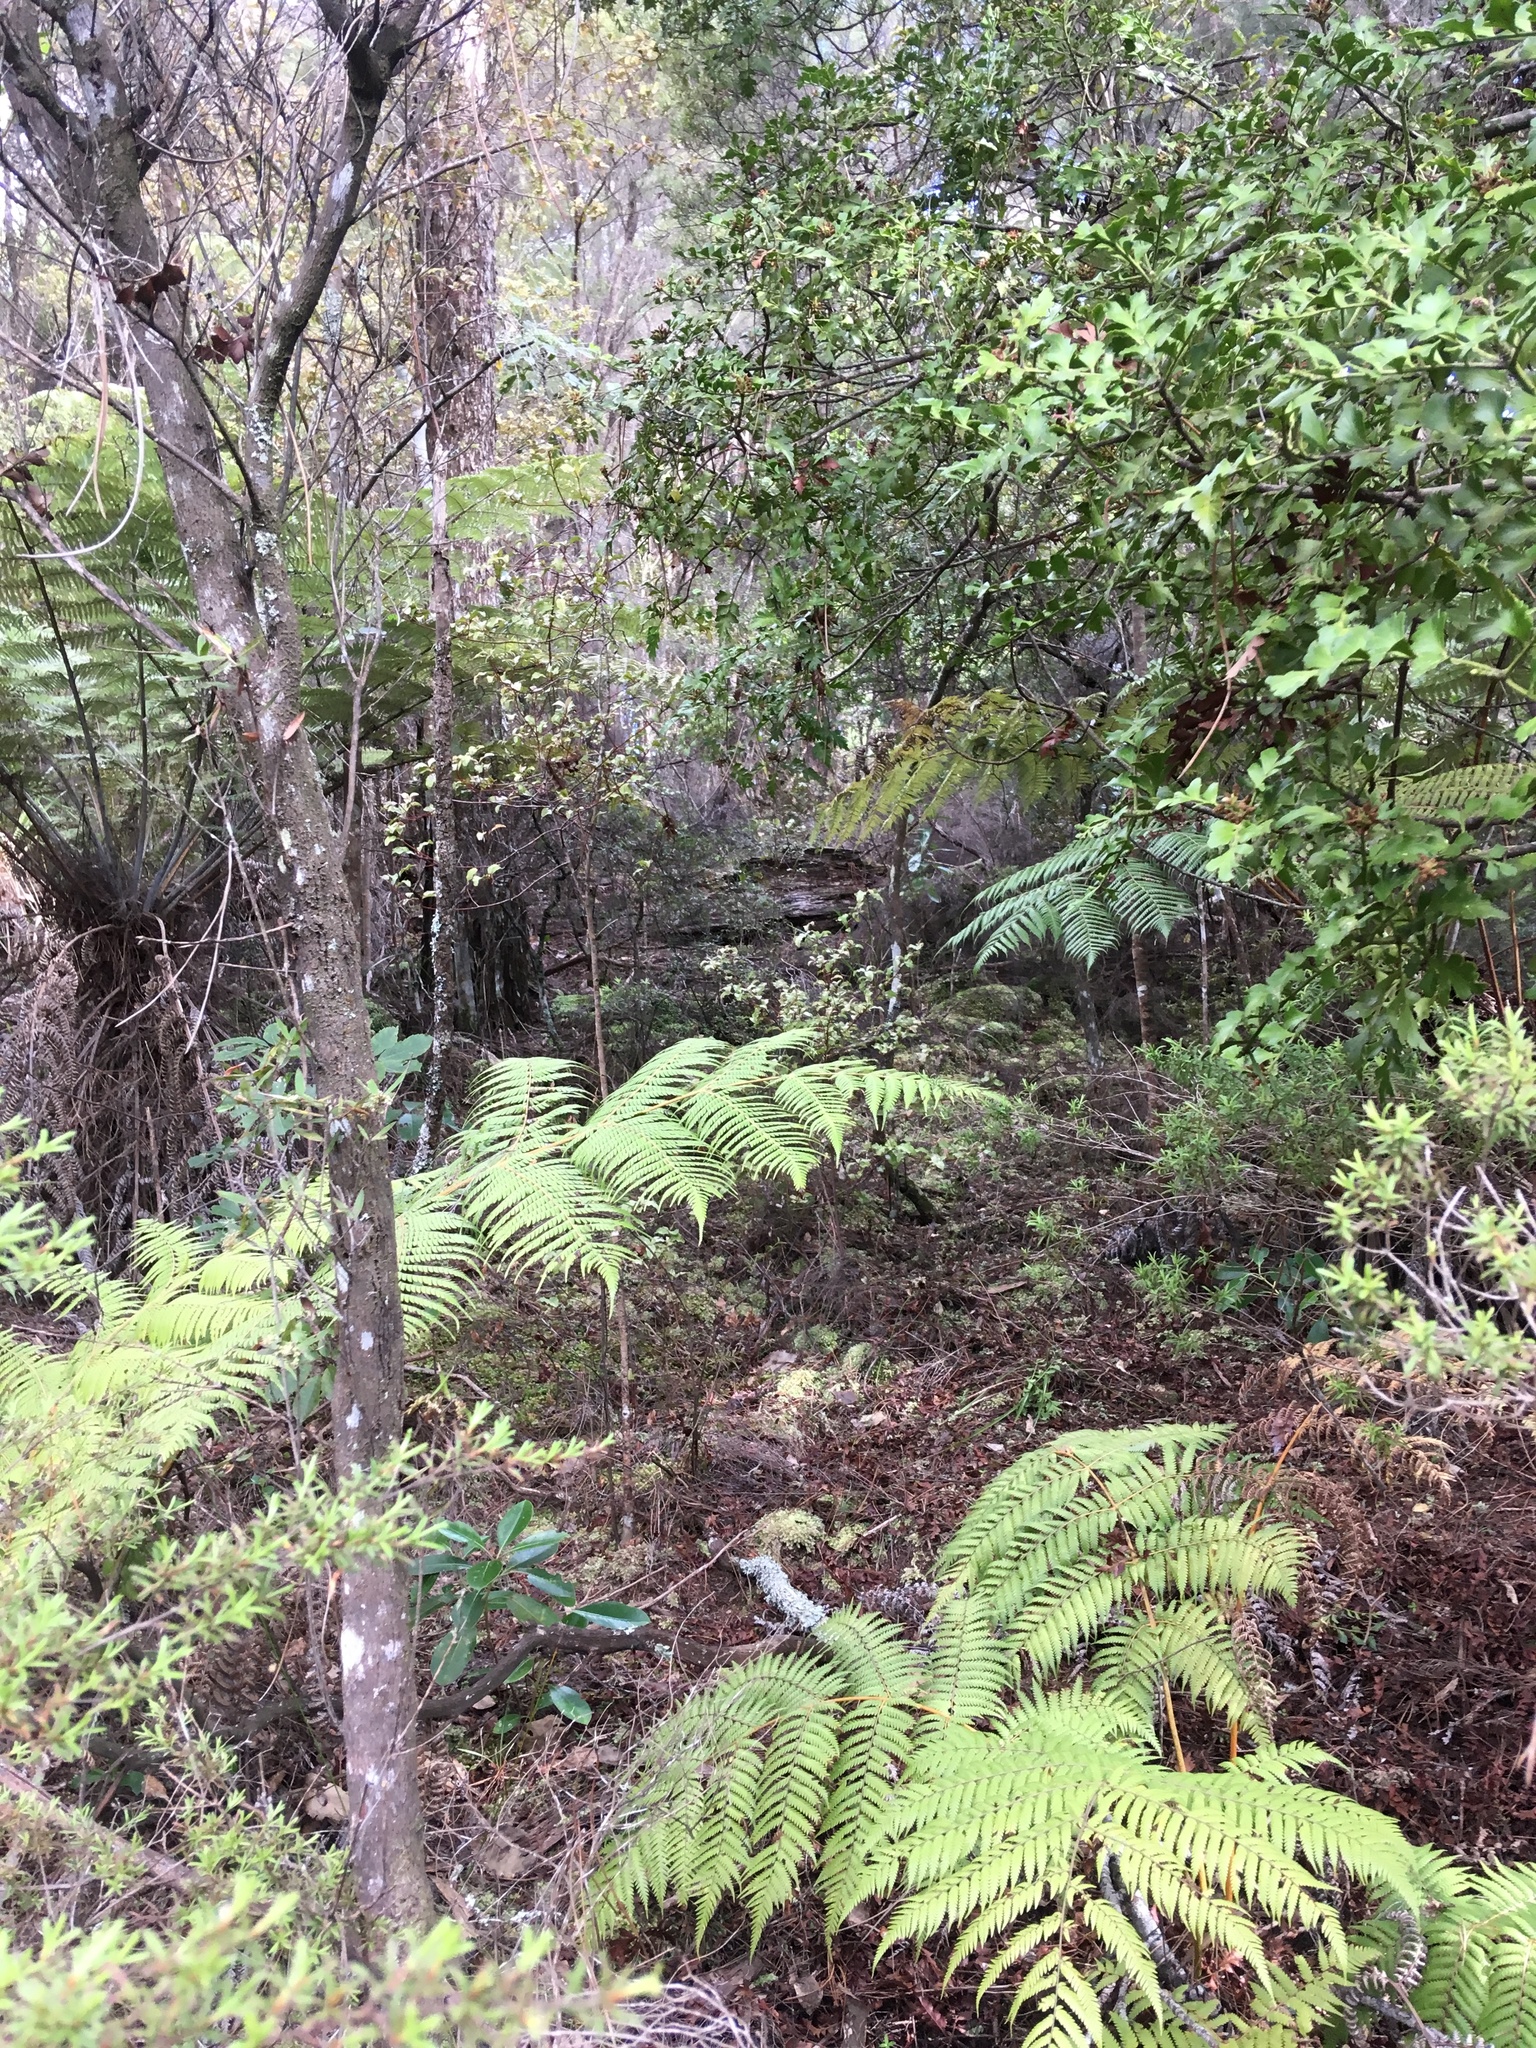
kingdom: Plantae
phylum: Tracheophyta
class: Pinopsida
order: Pinales
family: Phyllocladaceae
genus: Phyllocladus
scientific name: Phyllocladus trichomanoides
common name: Celery pine
